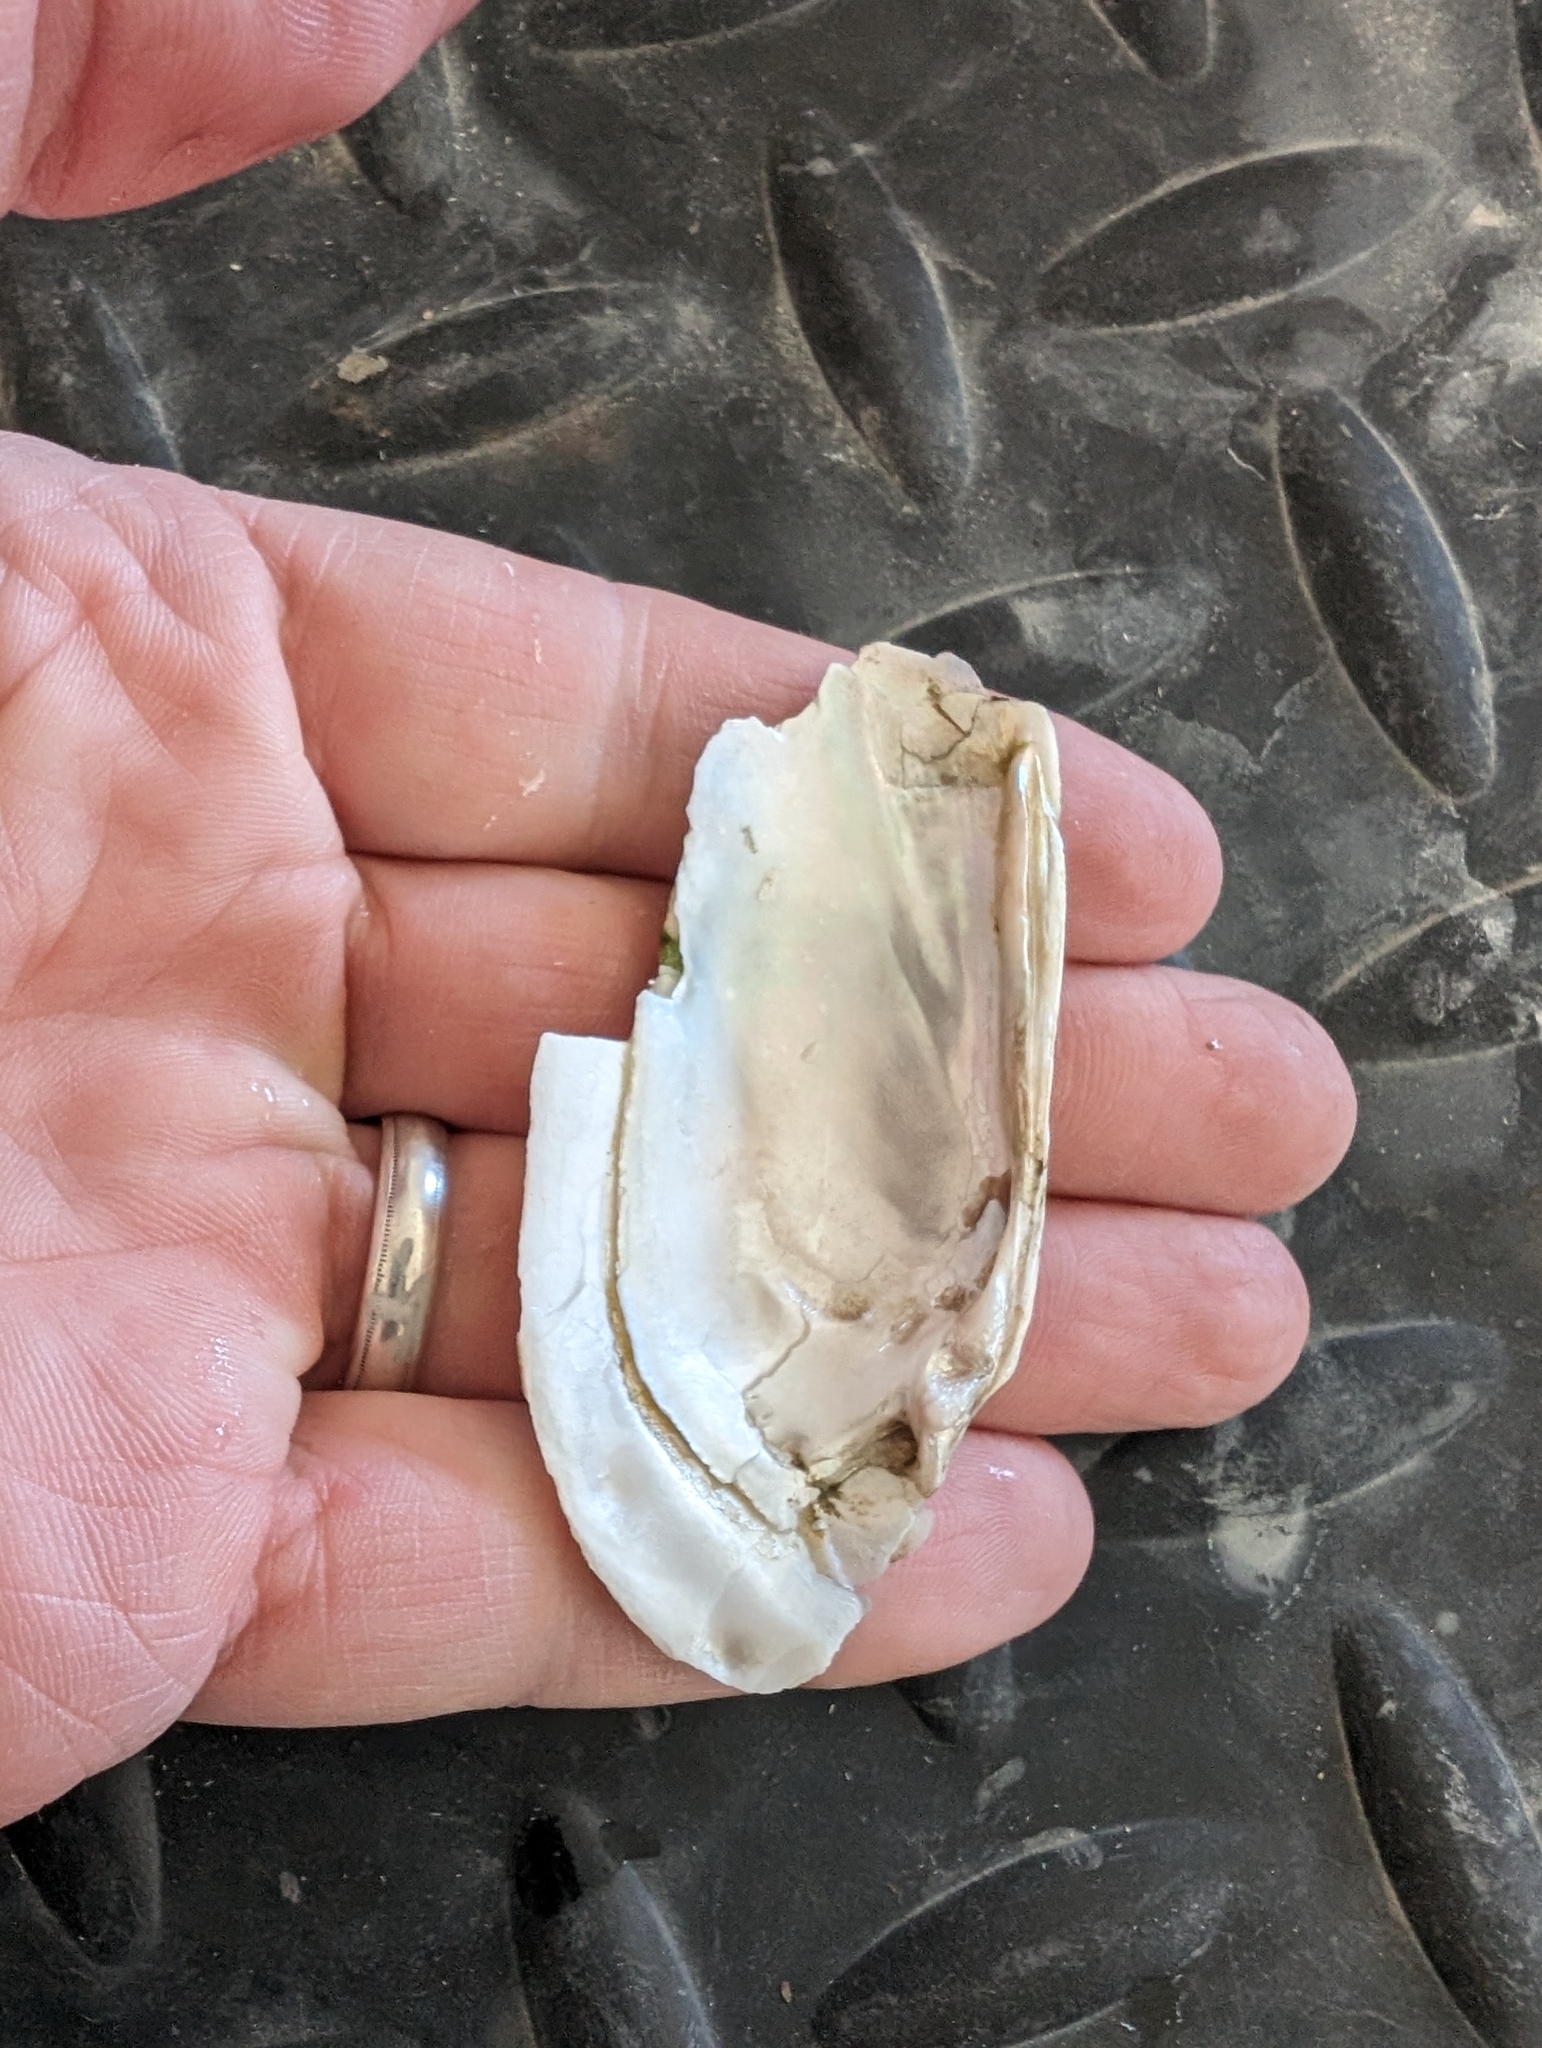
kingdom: Animalia
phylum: Mollusca
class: Bivalvia
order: Unionida
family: Unionidae
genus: Ligumia
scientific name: Ligumia recta
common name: Black sandshell
